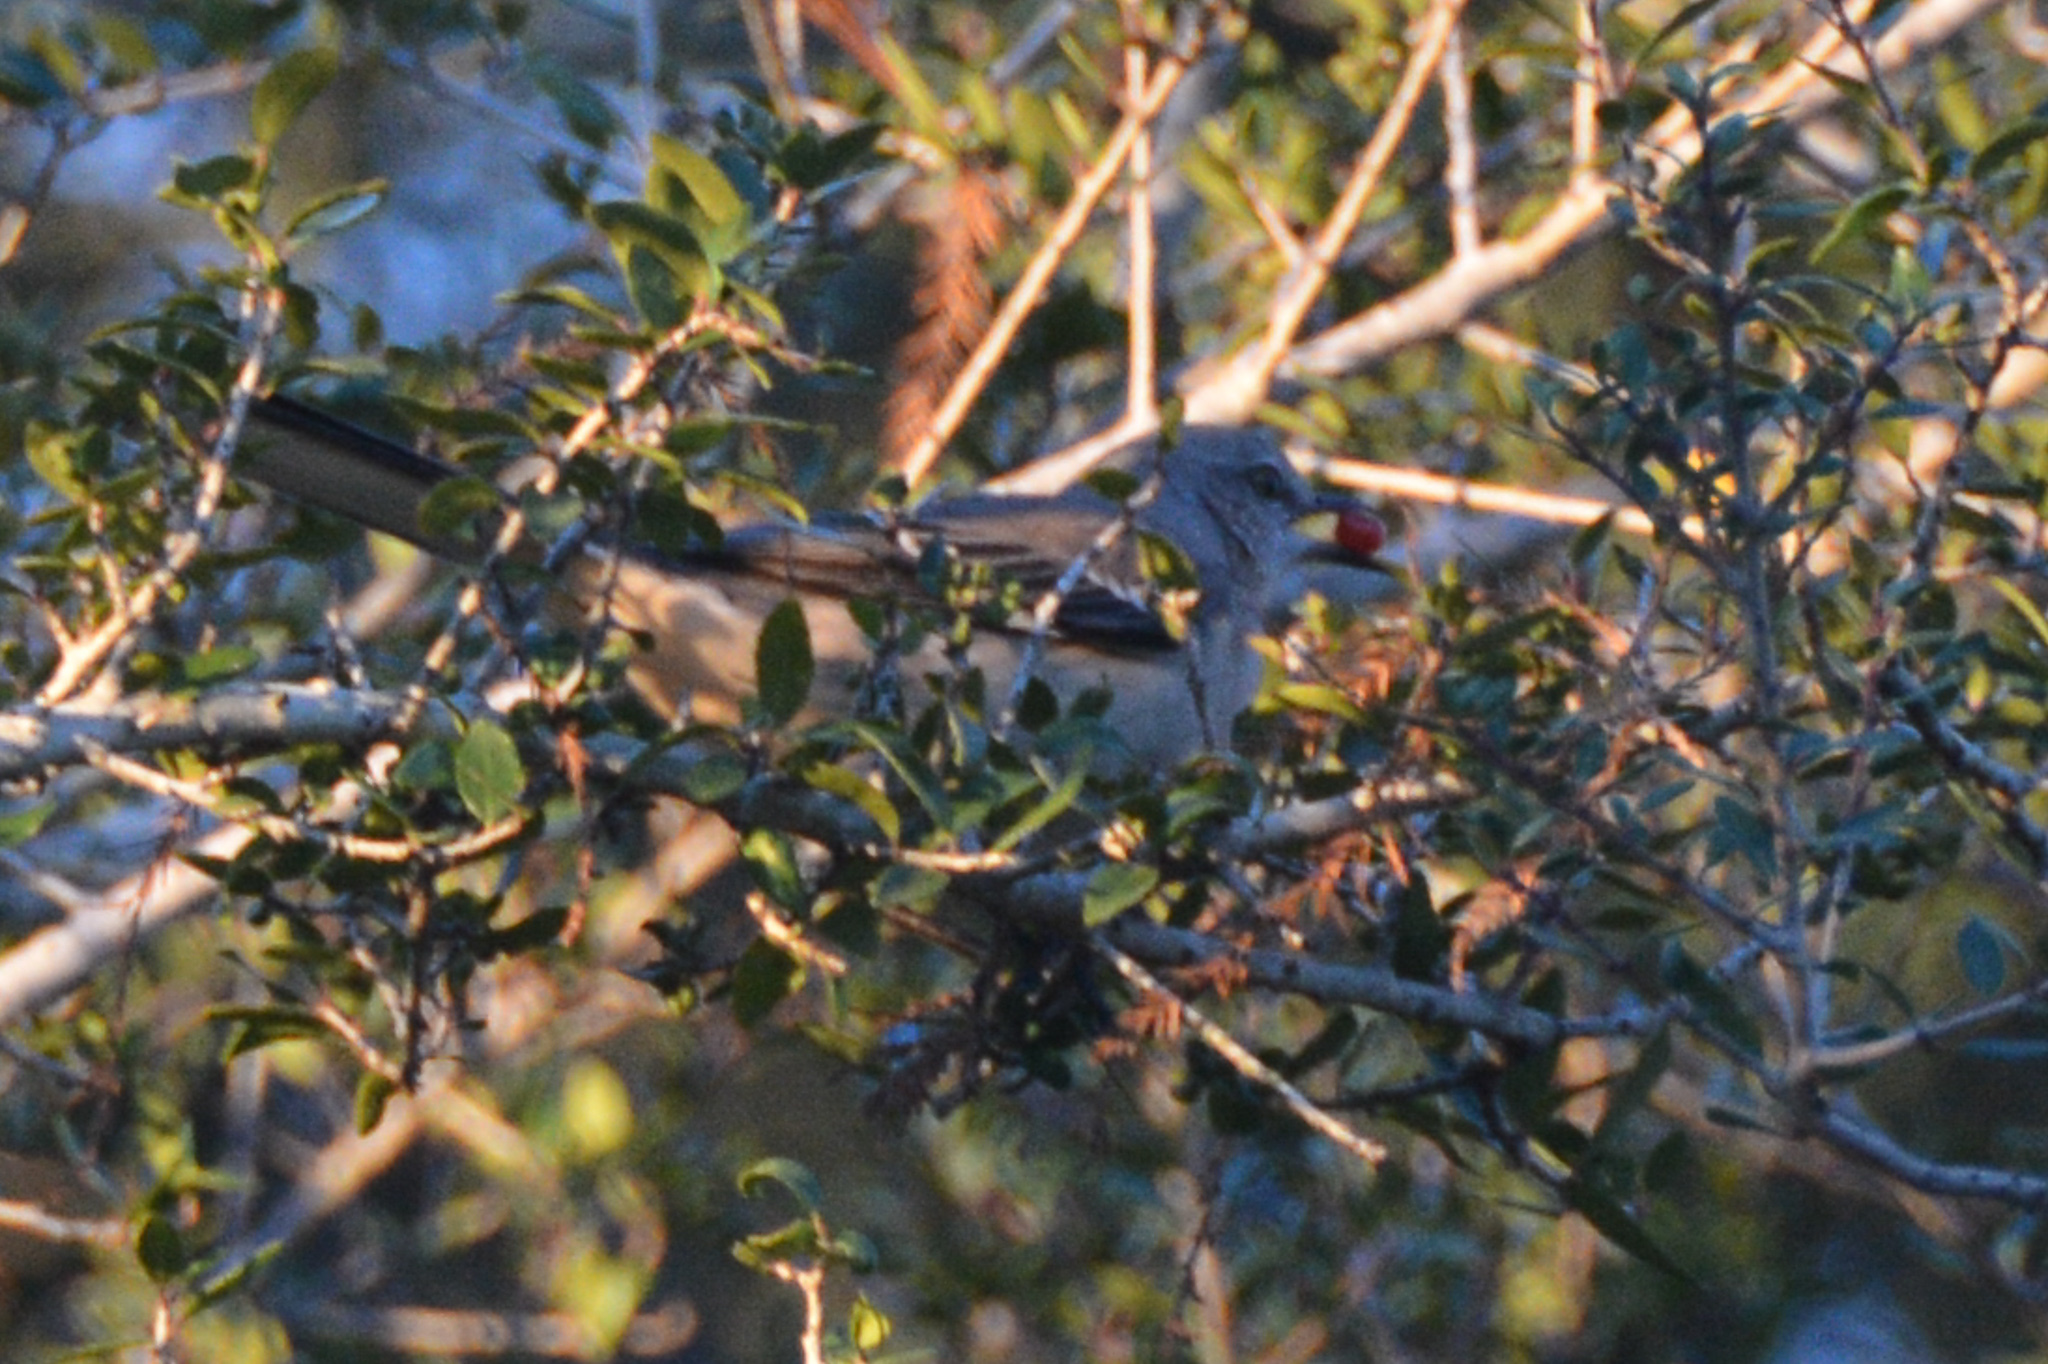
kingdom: Animalia
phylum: Chordata
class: Aves
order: Passeriformes
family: Mimidae
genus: Mimus
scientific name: Mimus polyglottos
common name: Northern mockingbird
